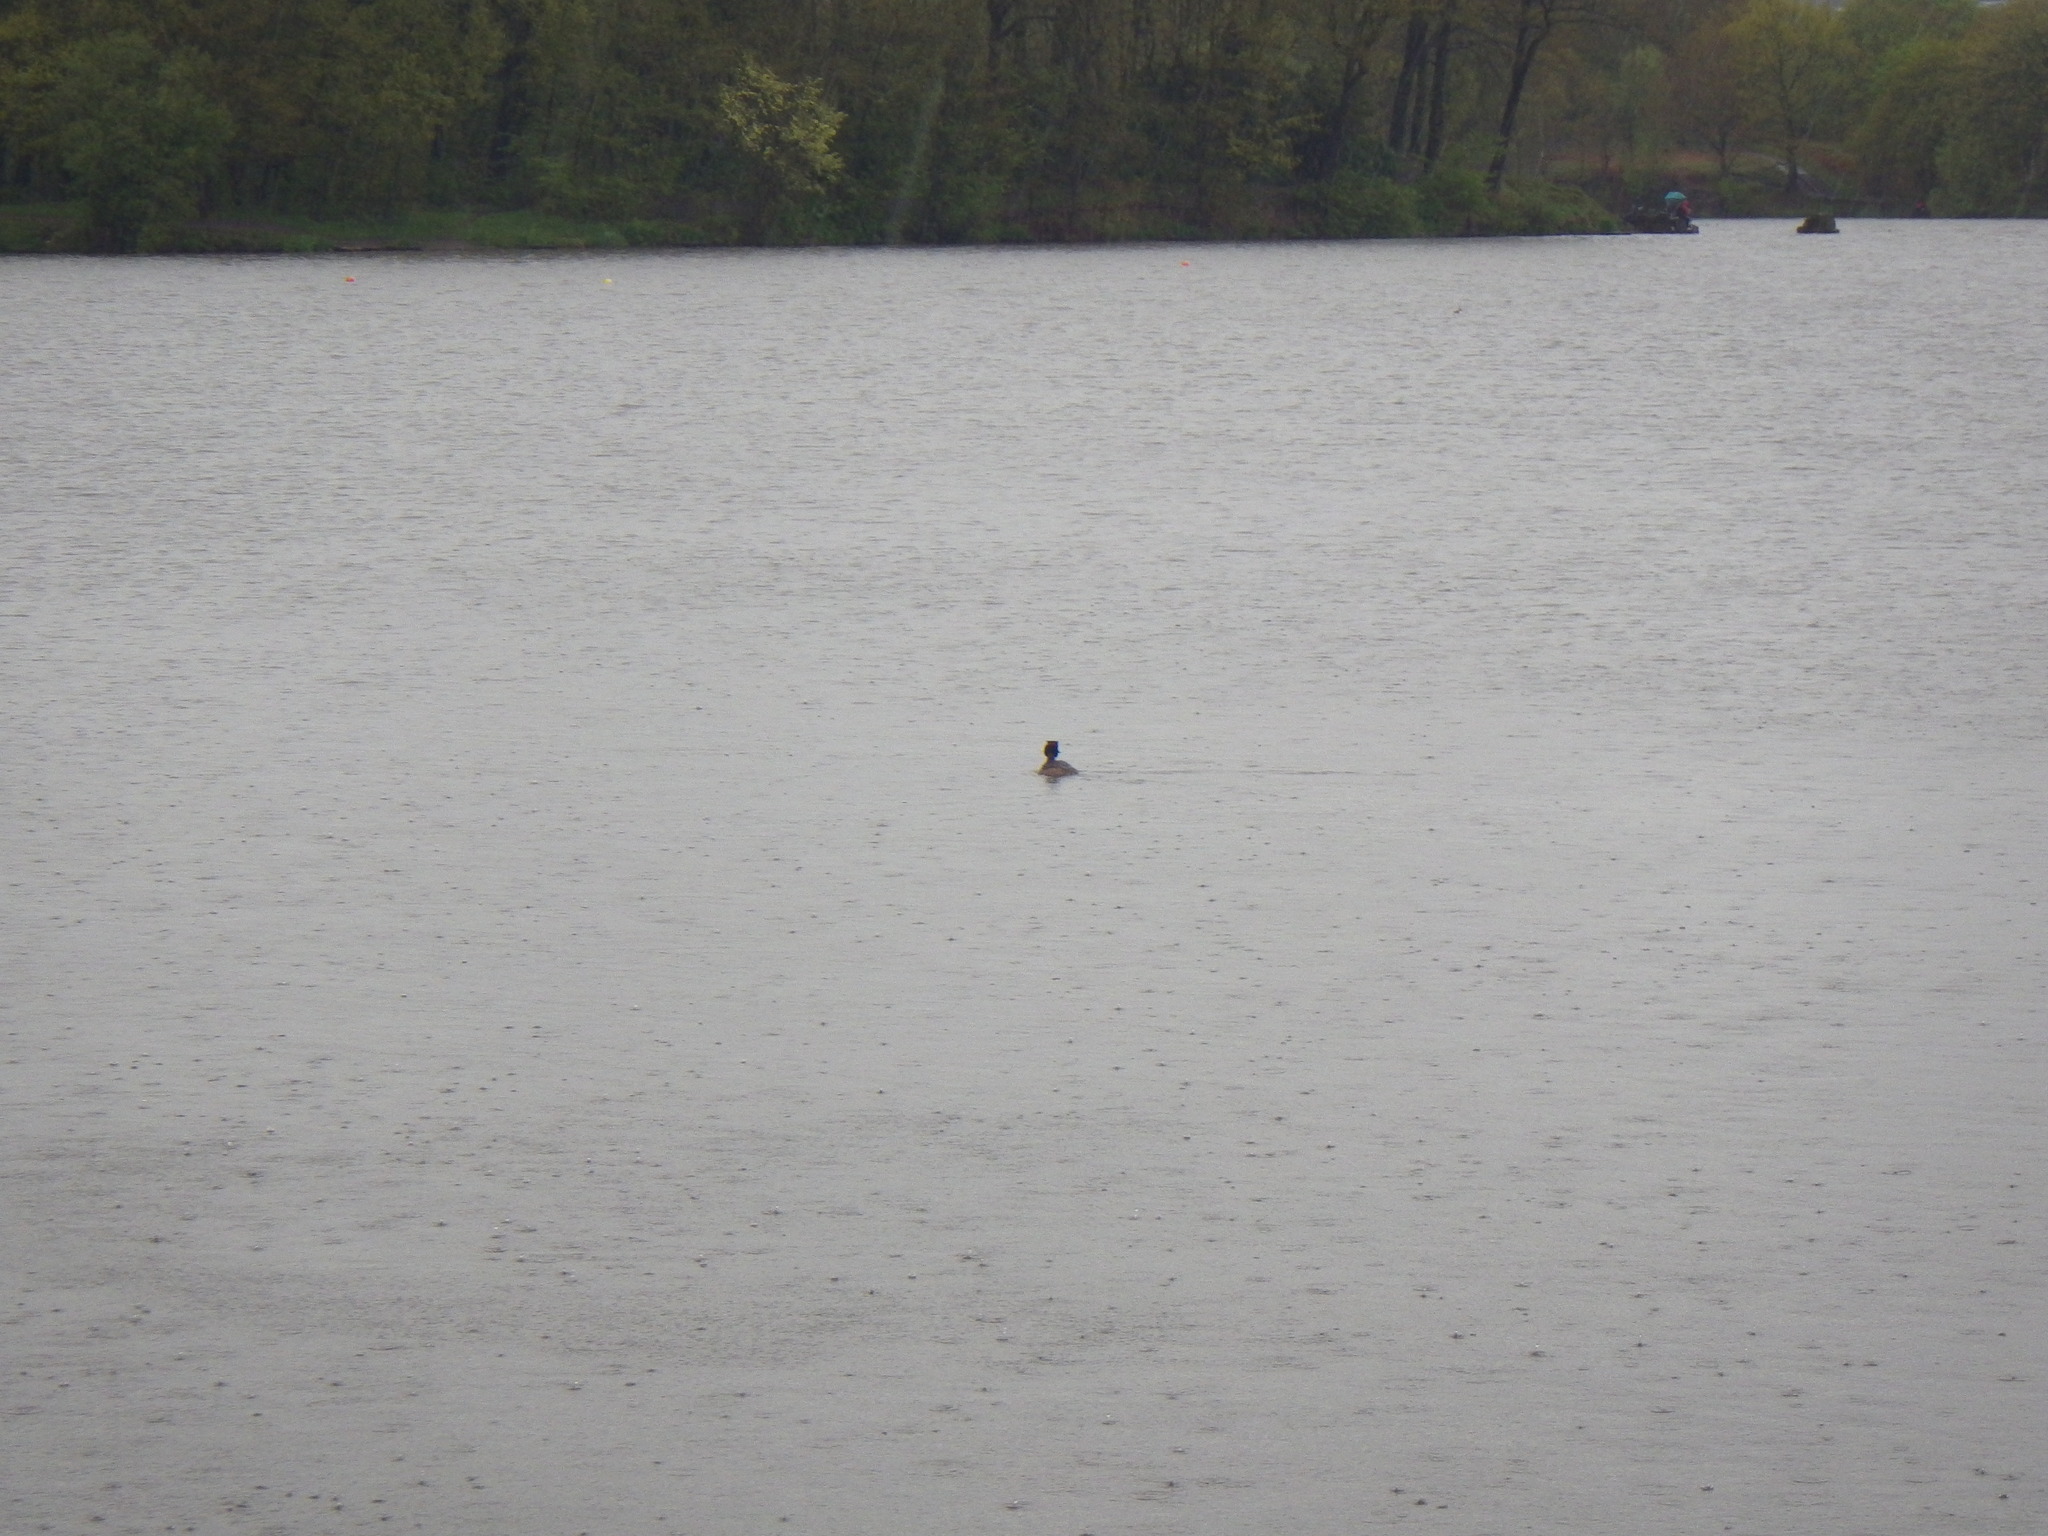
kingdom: Animalia
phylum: Chordata
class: Aves
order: Podicipediformes
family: Podicipedidae
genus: Podiceps
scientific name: Podiceps cristatus
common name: Great crested grebe
